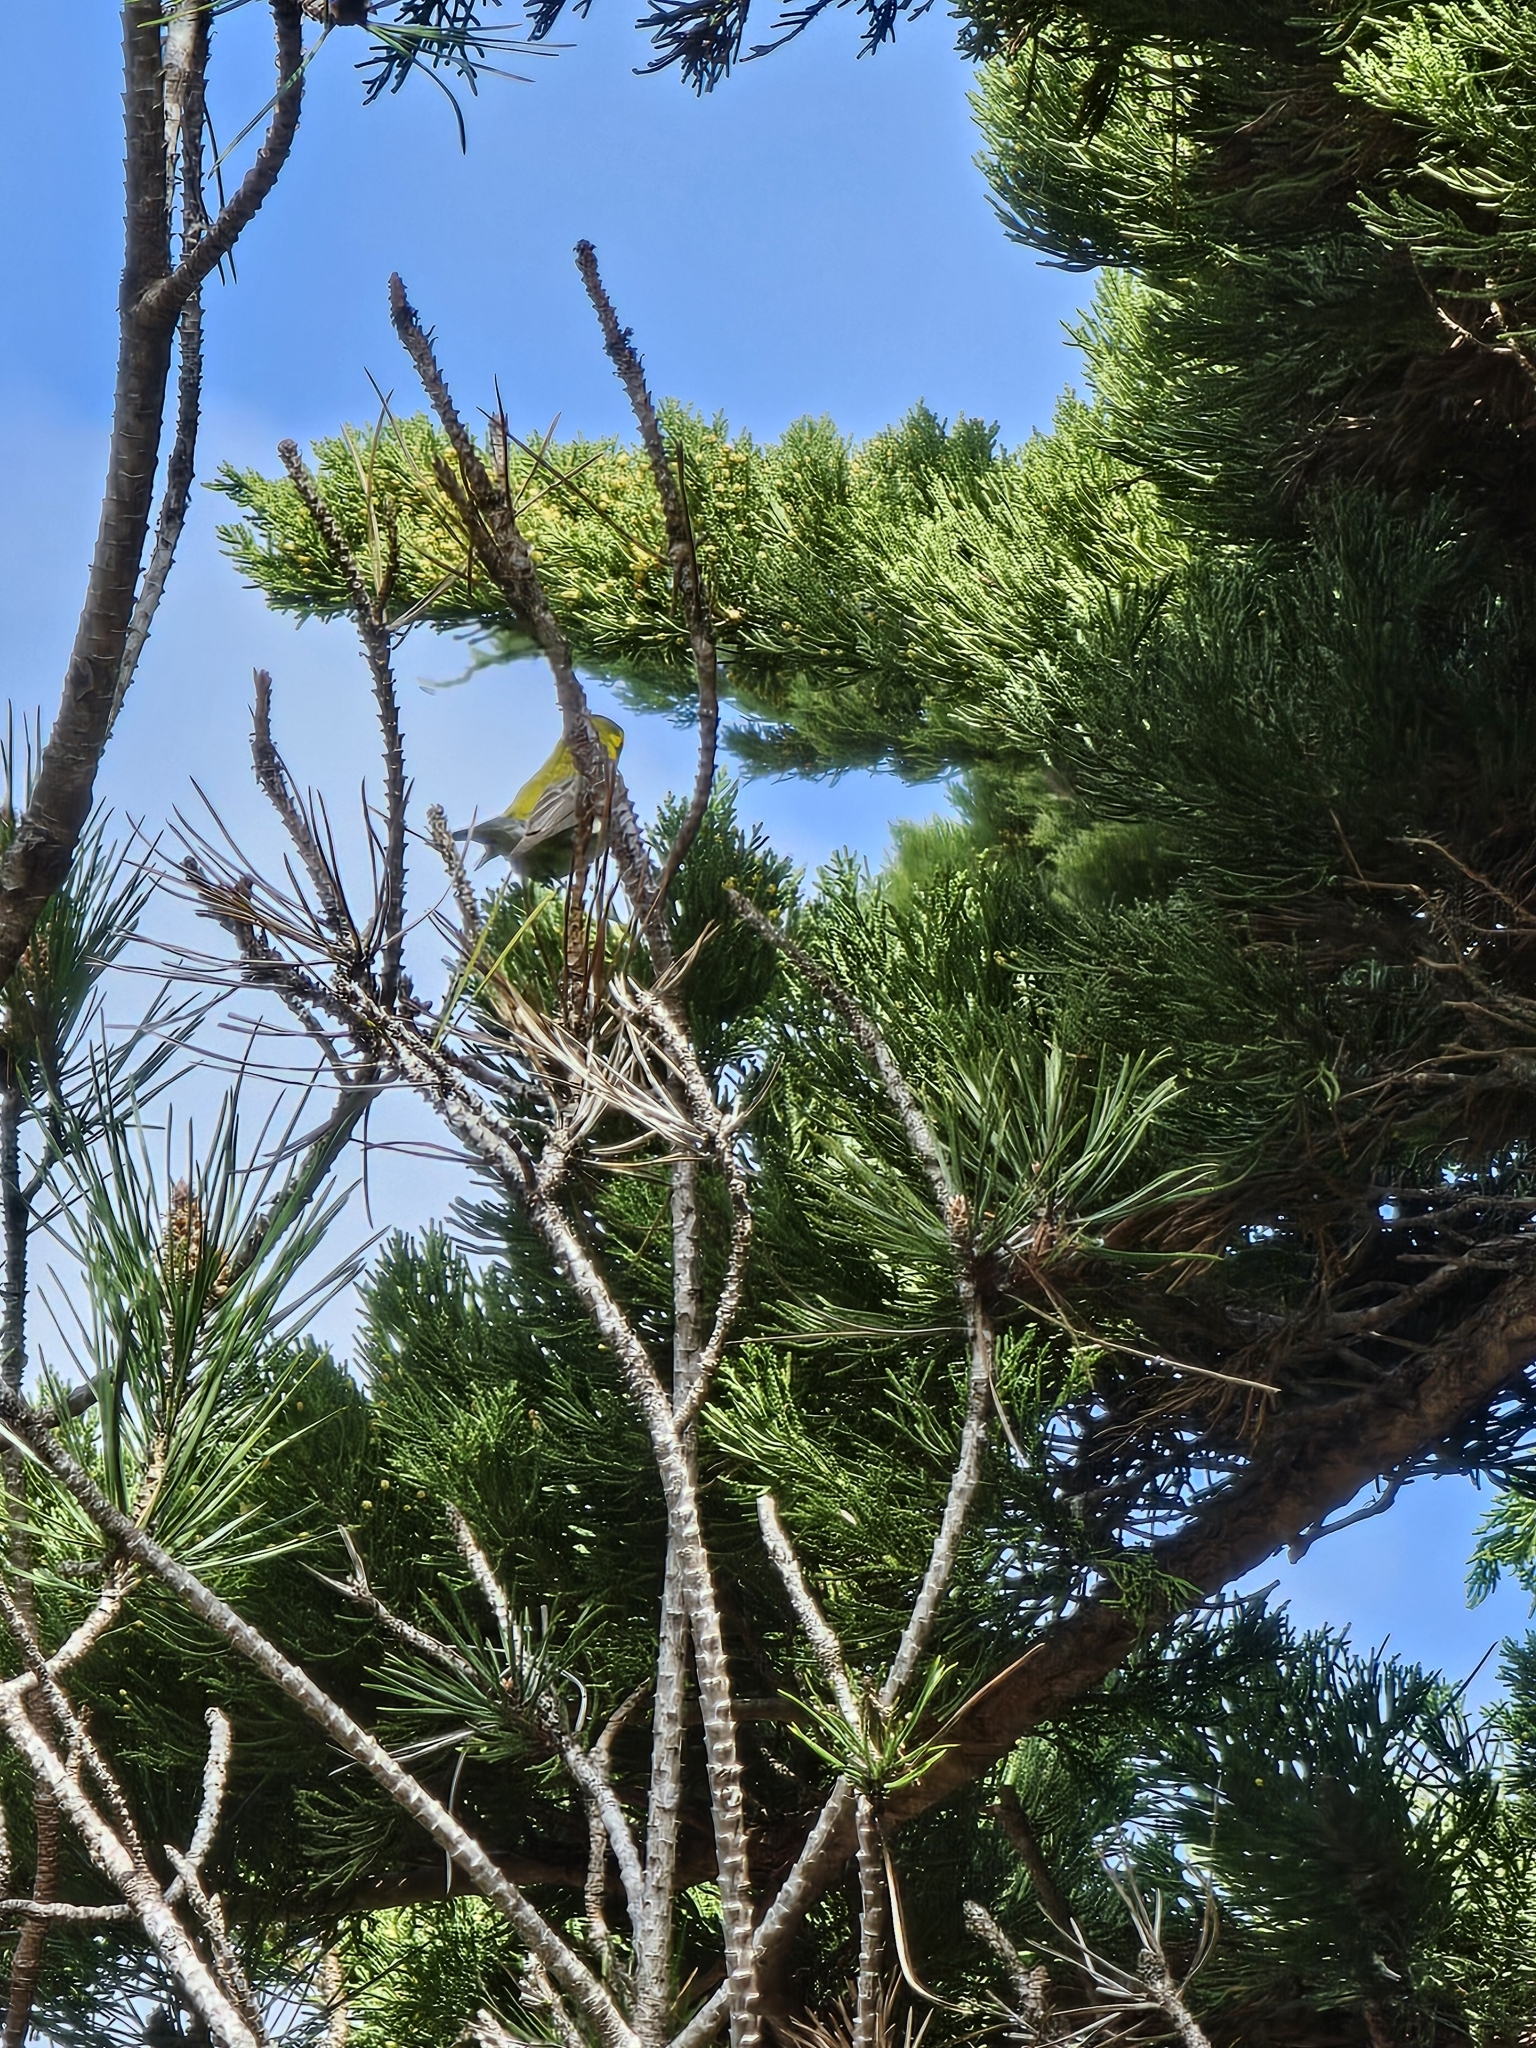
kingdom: Animalia
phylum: Chordata
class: Aves
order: Passeriformes
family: Parulidae
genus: Setophaga
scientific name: Setophaga townsendi
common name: Townsend's warbler
